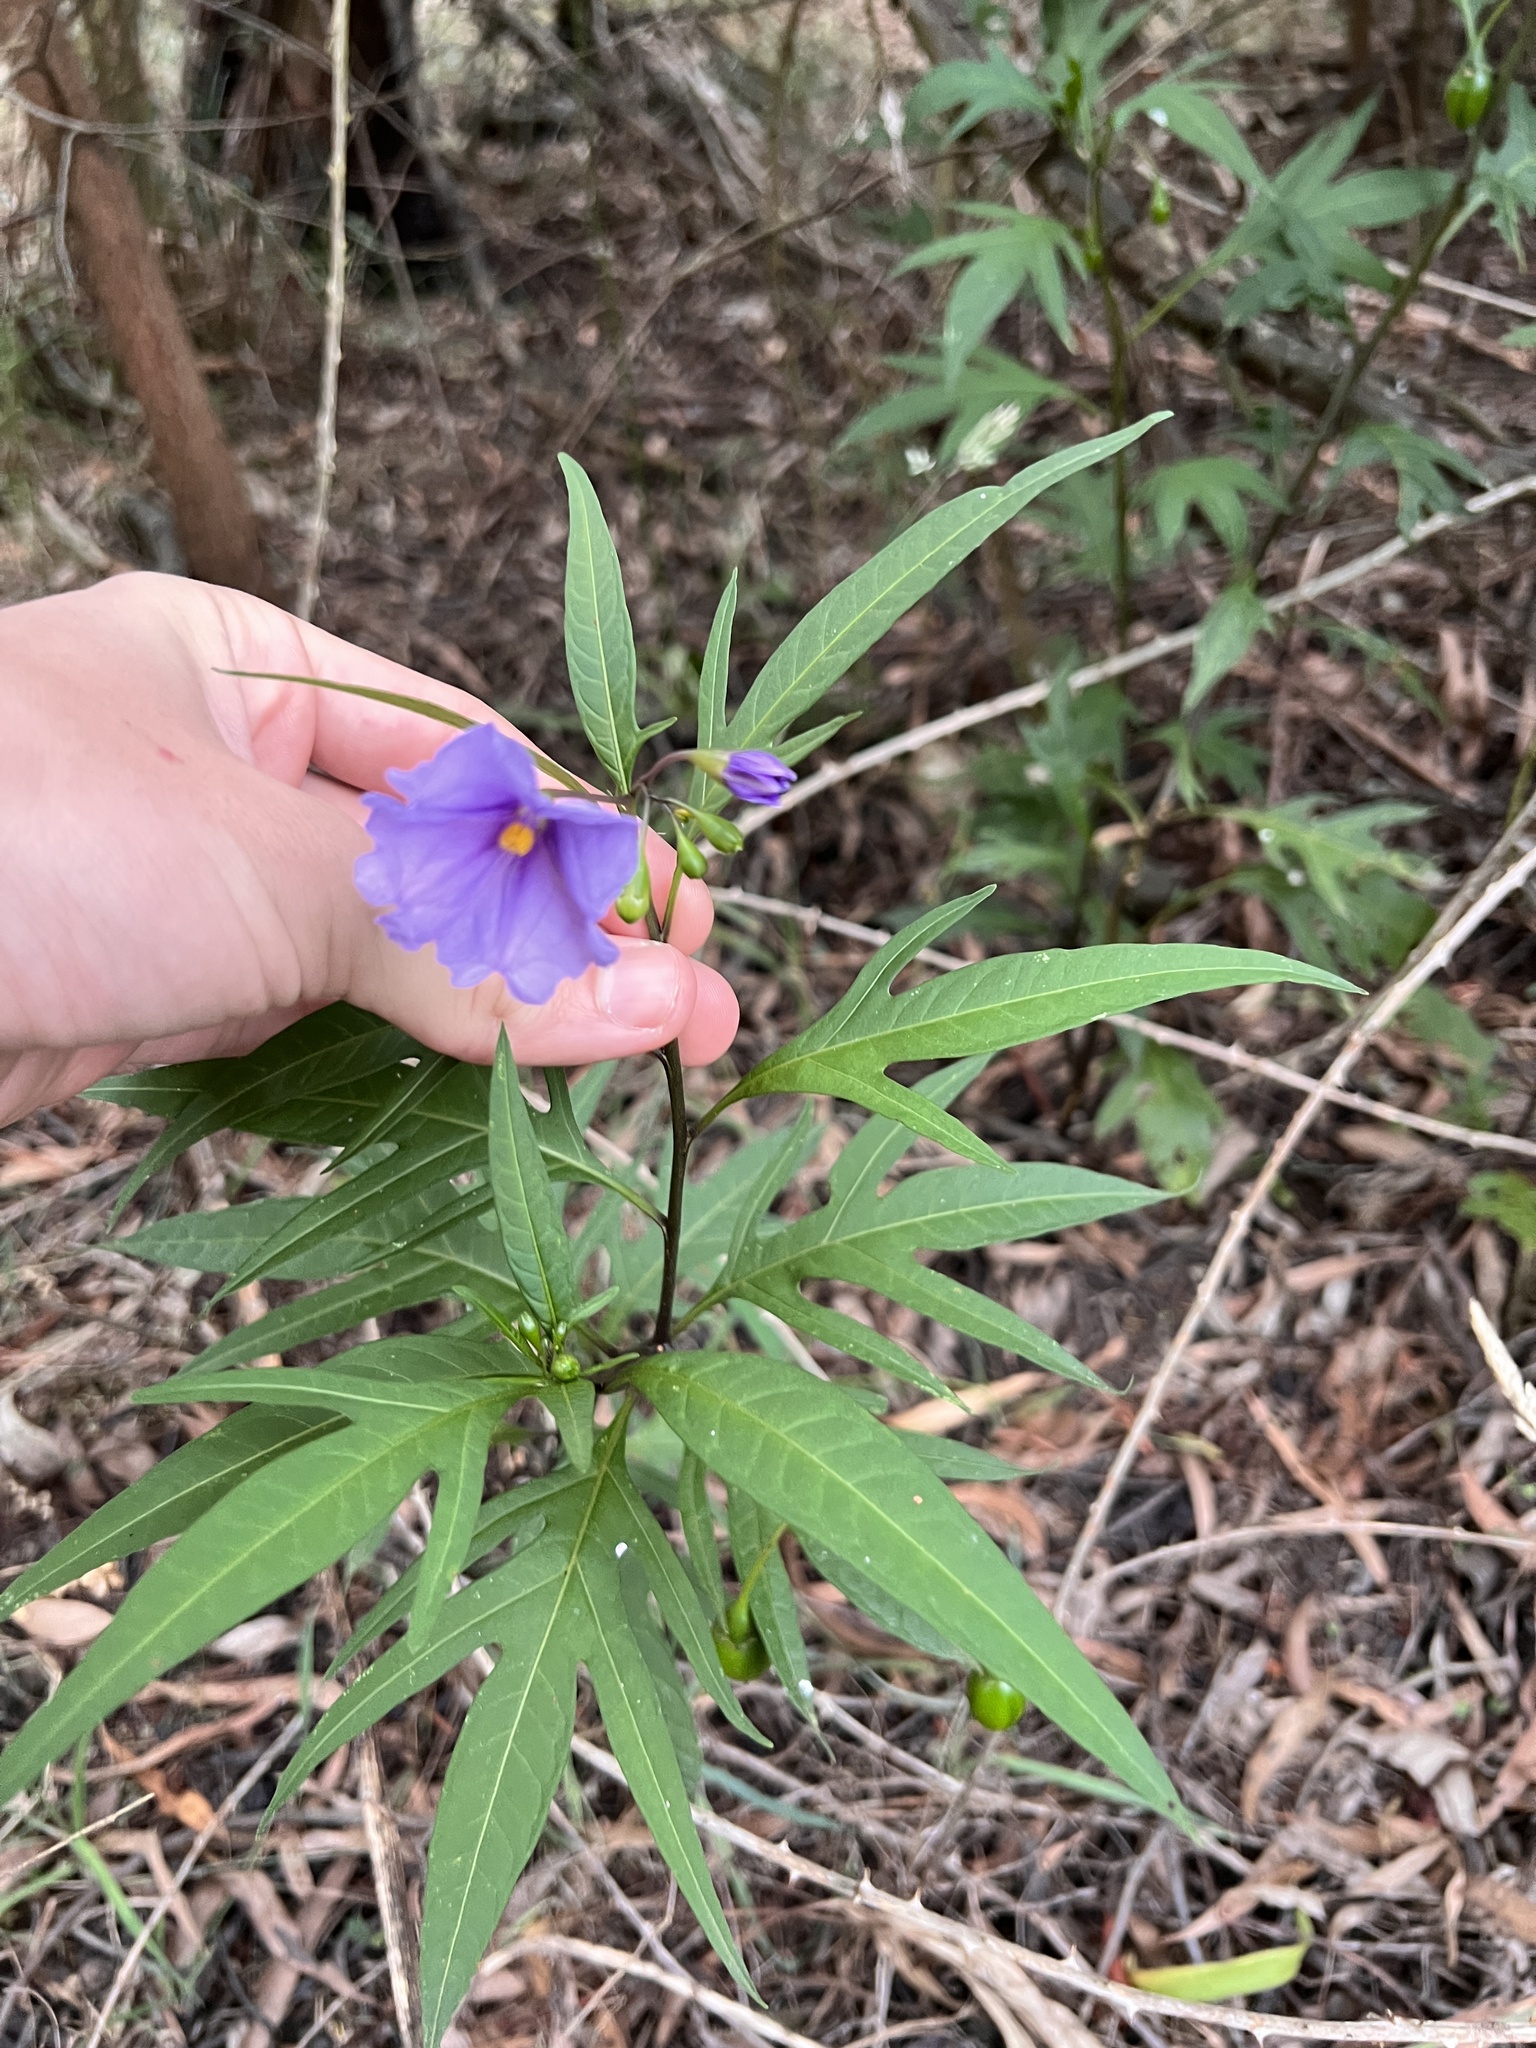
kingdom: Plantae
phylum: Tracheophyta
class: Magnoliopsida
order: Solanales
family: Solanaceae
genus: Solanum
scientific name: Solanum laciniatum
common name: Kangaroo-apple
